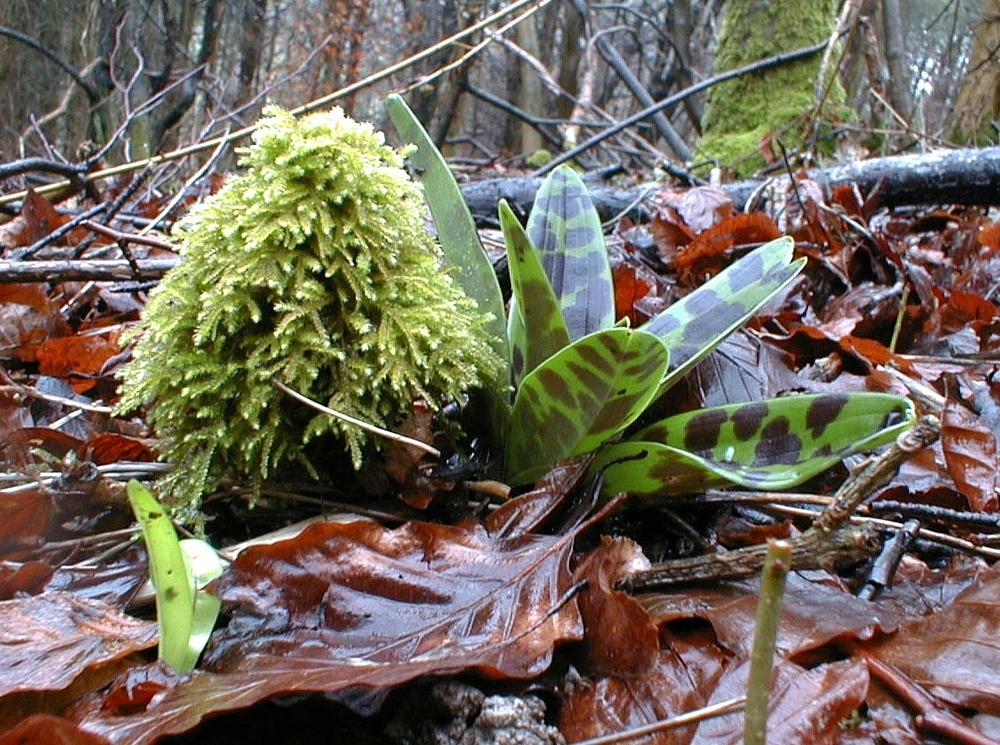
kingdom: Plantae
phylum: Tracheophyta
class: Liliopsida
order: Asparagales
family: Orchidaceae
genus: Orchis
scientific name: Orchis mascula
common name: Early-purple orchid
